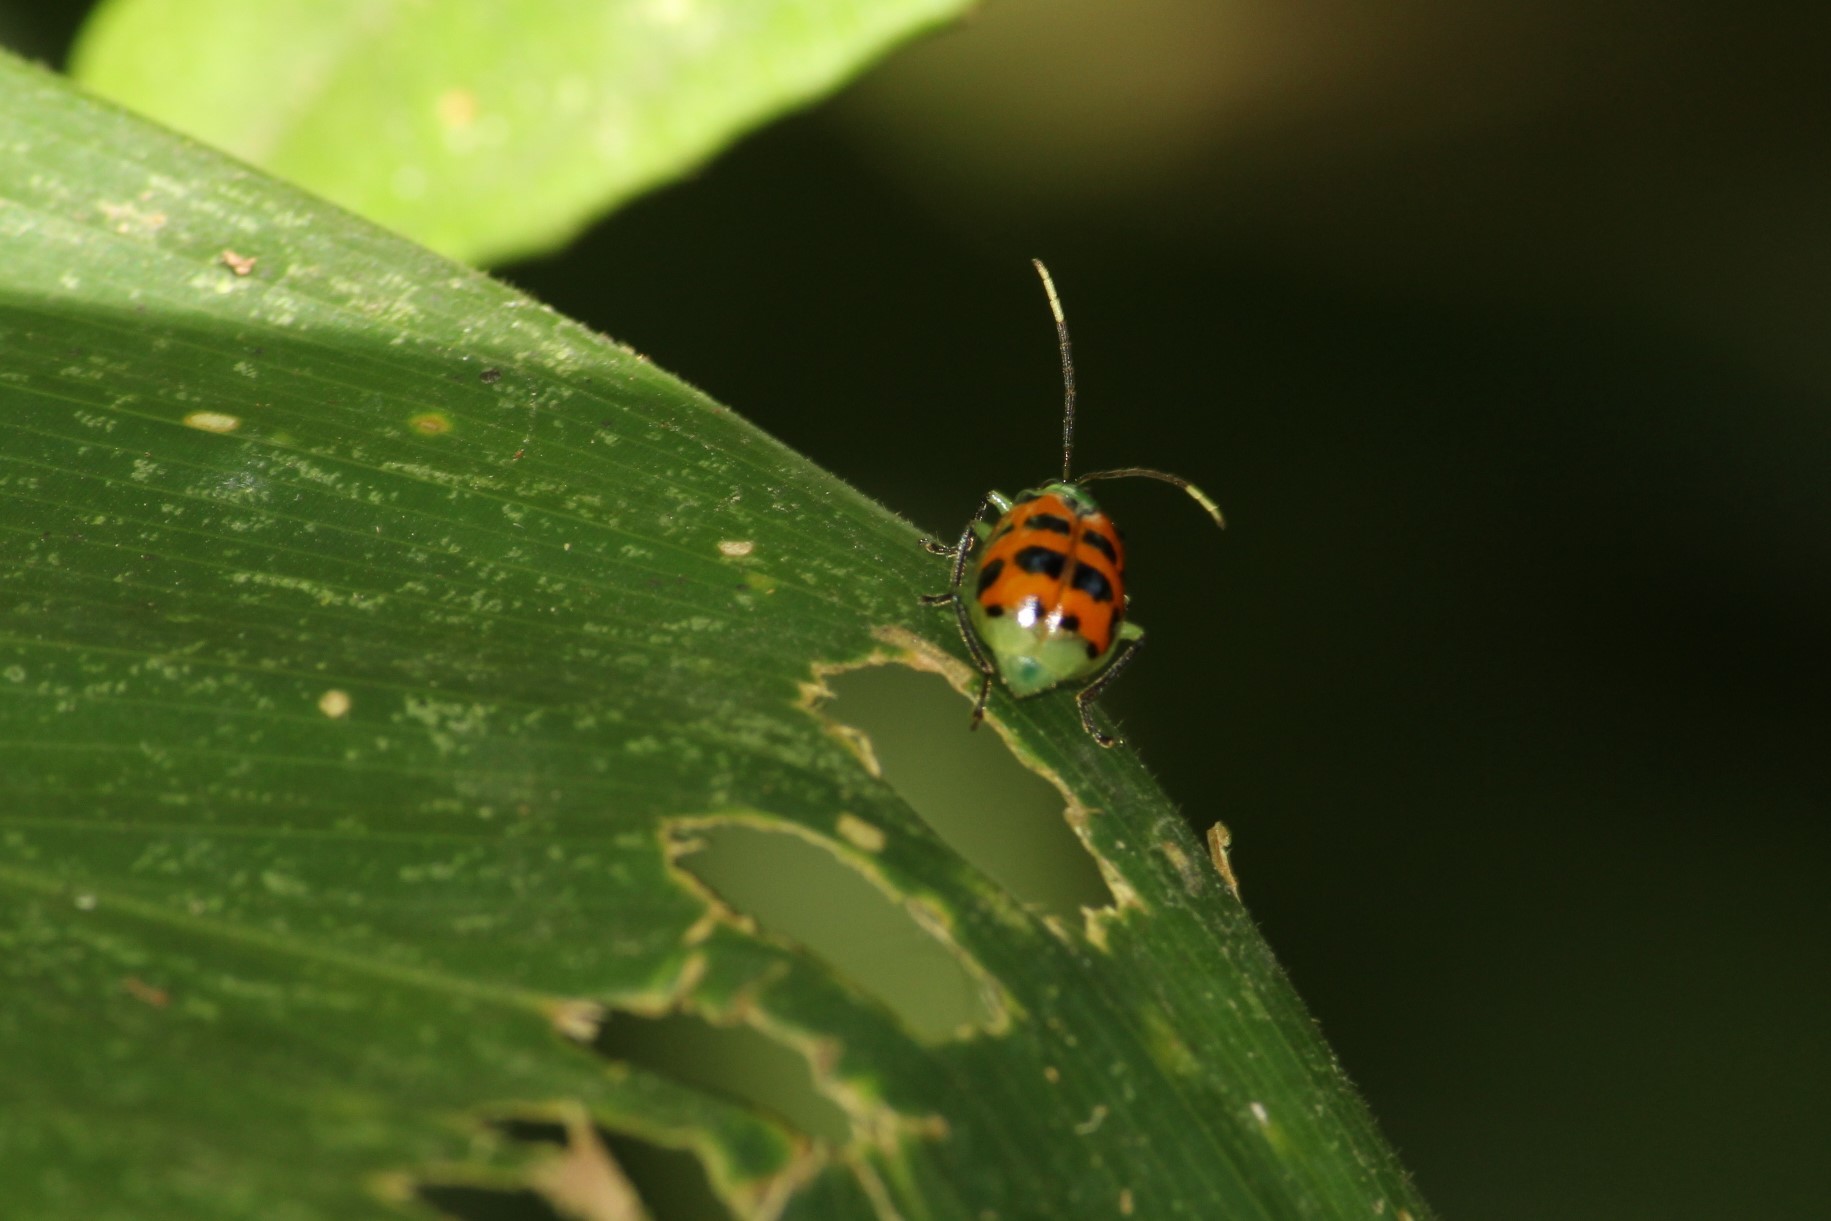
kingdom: Animalia
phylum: Arthropoda
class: Insecta
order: Coleoptera
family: Chrysomelidae
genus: Diabrotica
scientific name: Diabrotica limitata
